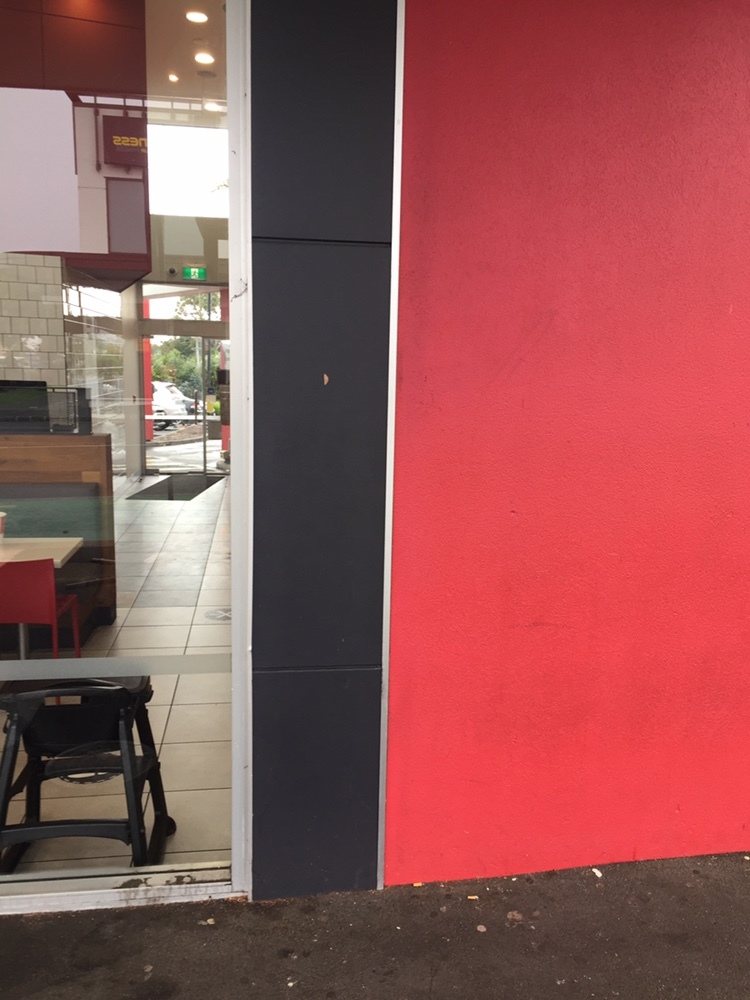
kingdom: Animalia
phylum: Arthropoda
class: Insecta
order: Lepidoptera
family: Geometridae
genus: Cyclophora
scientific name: Cyclophora obstataria
